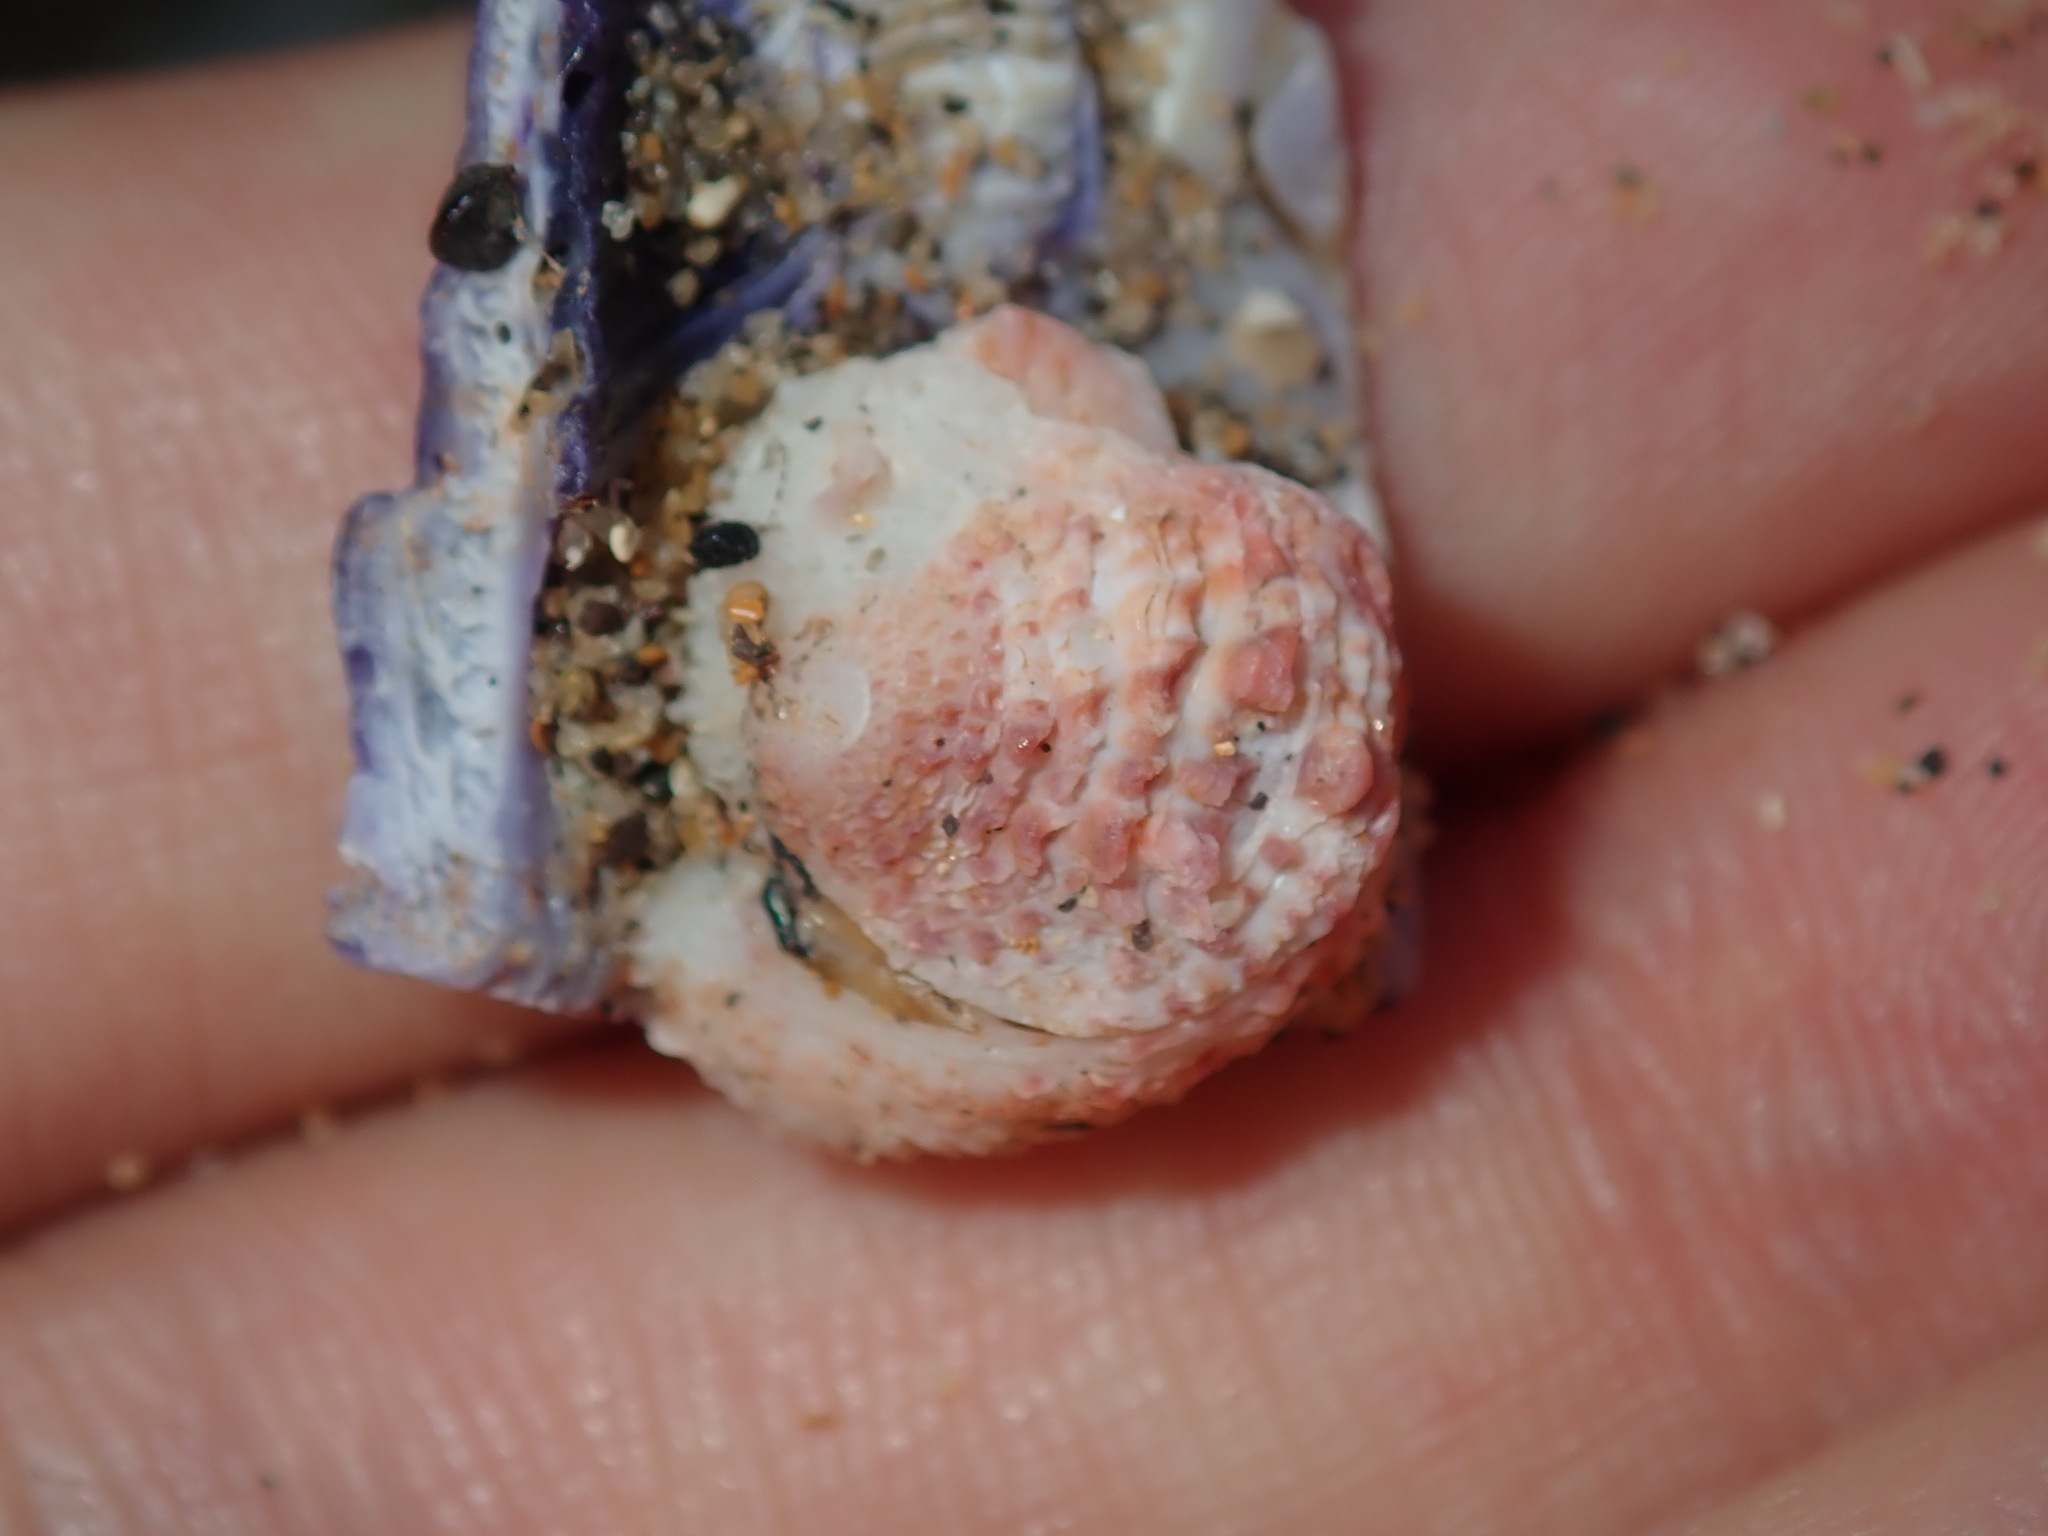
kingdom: Animalia
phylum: Mollusca
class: Bivalvia
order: Venerida
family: Chamidae
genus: Chama
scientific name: Chama asperella
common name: Mollusca
